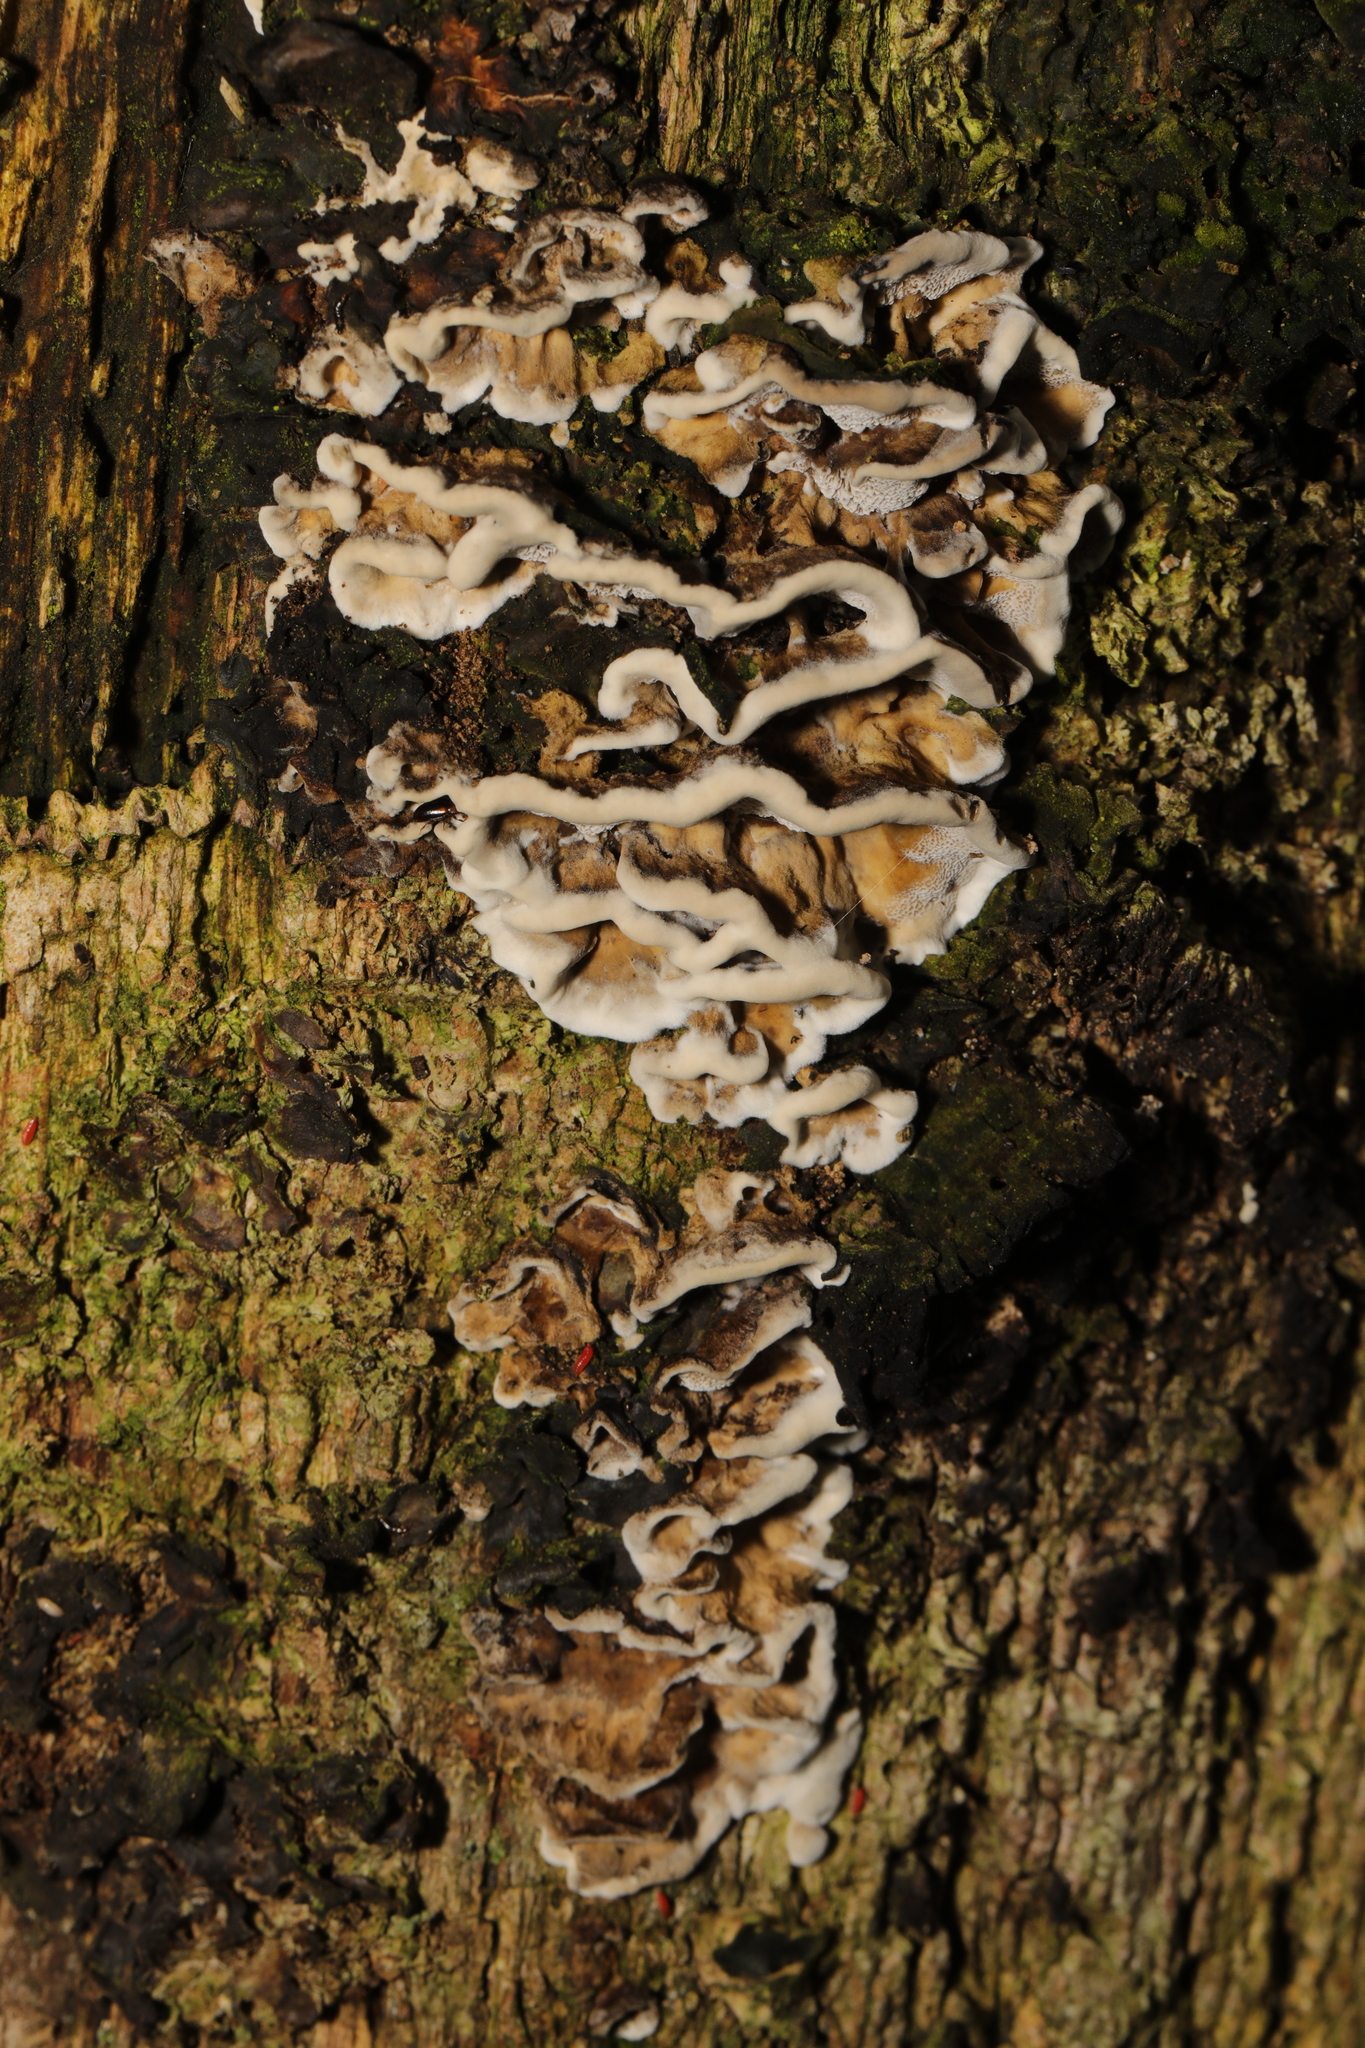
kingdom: Fungi
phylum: Basidiomycota
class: Agaricomycetes
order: Polyporales
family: Phanerochaetaceae
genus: Bjerkandera
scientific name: Bjerkandera adusta
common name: Smoky bracket
